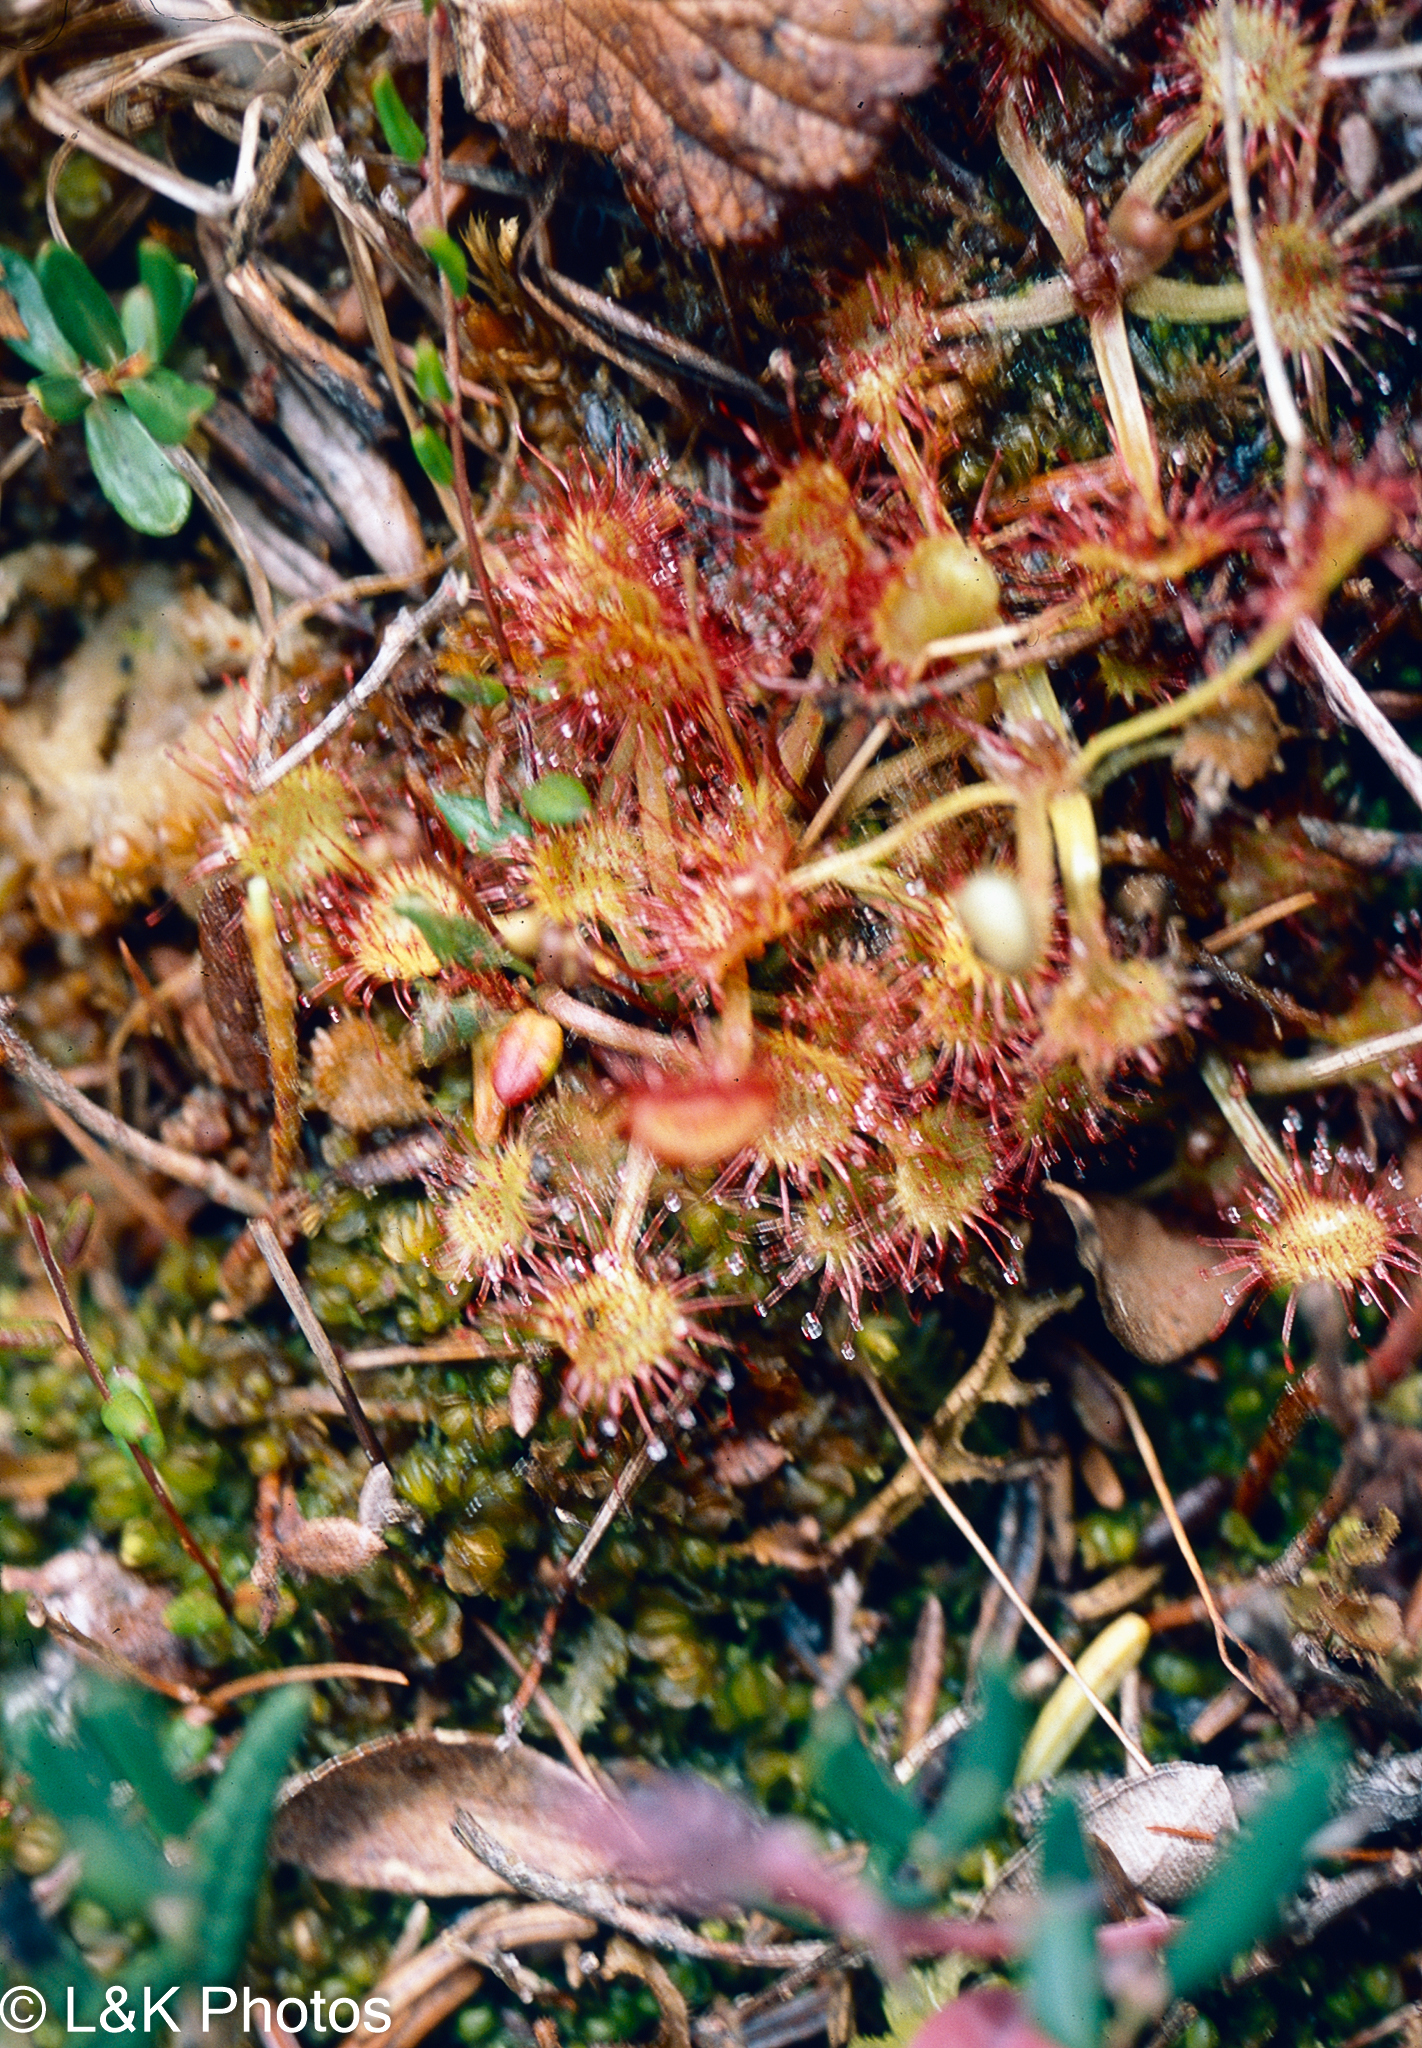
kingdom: Plantae
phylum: Tracheophyta
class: Magnoliopsida
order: Caryophyllales
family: Droseraceae
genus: Drosera
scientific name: Drosera rotundifolia
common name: Round-leaved sundew
